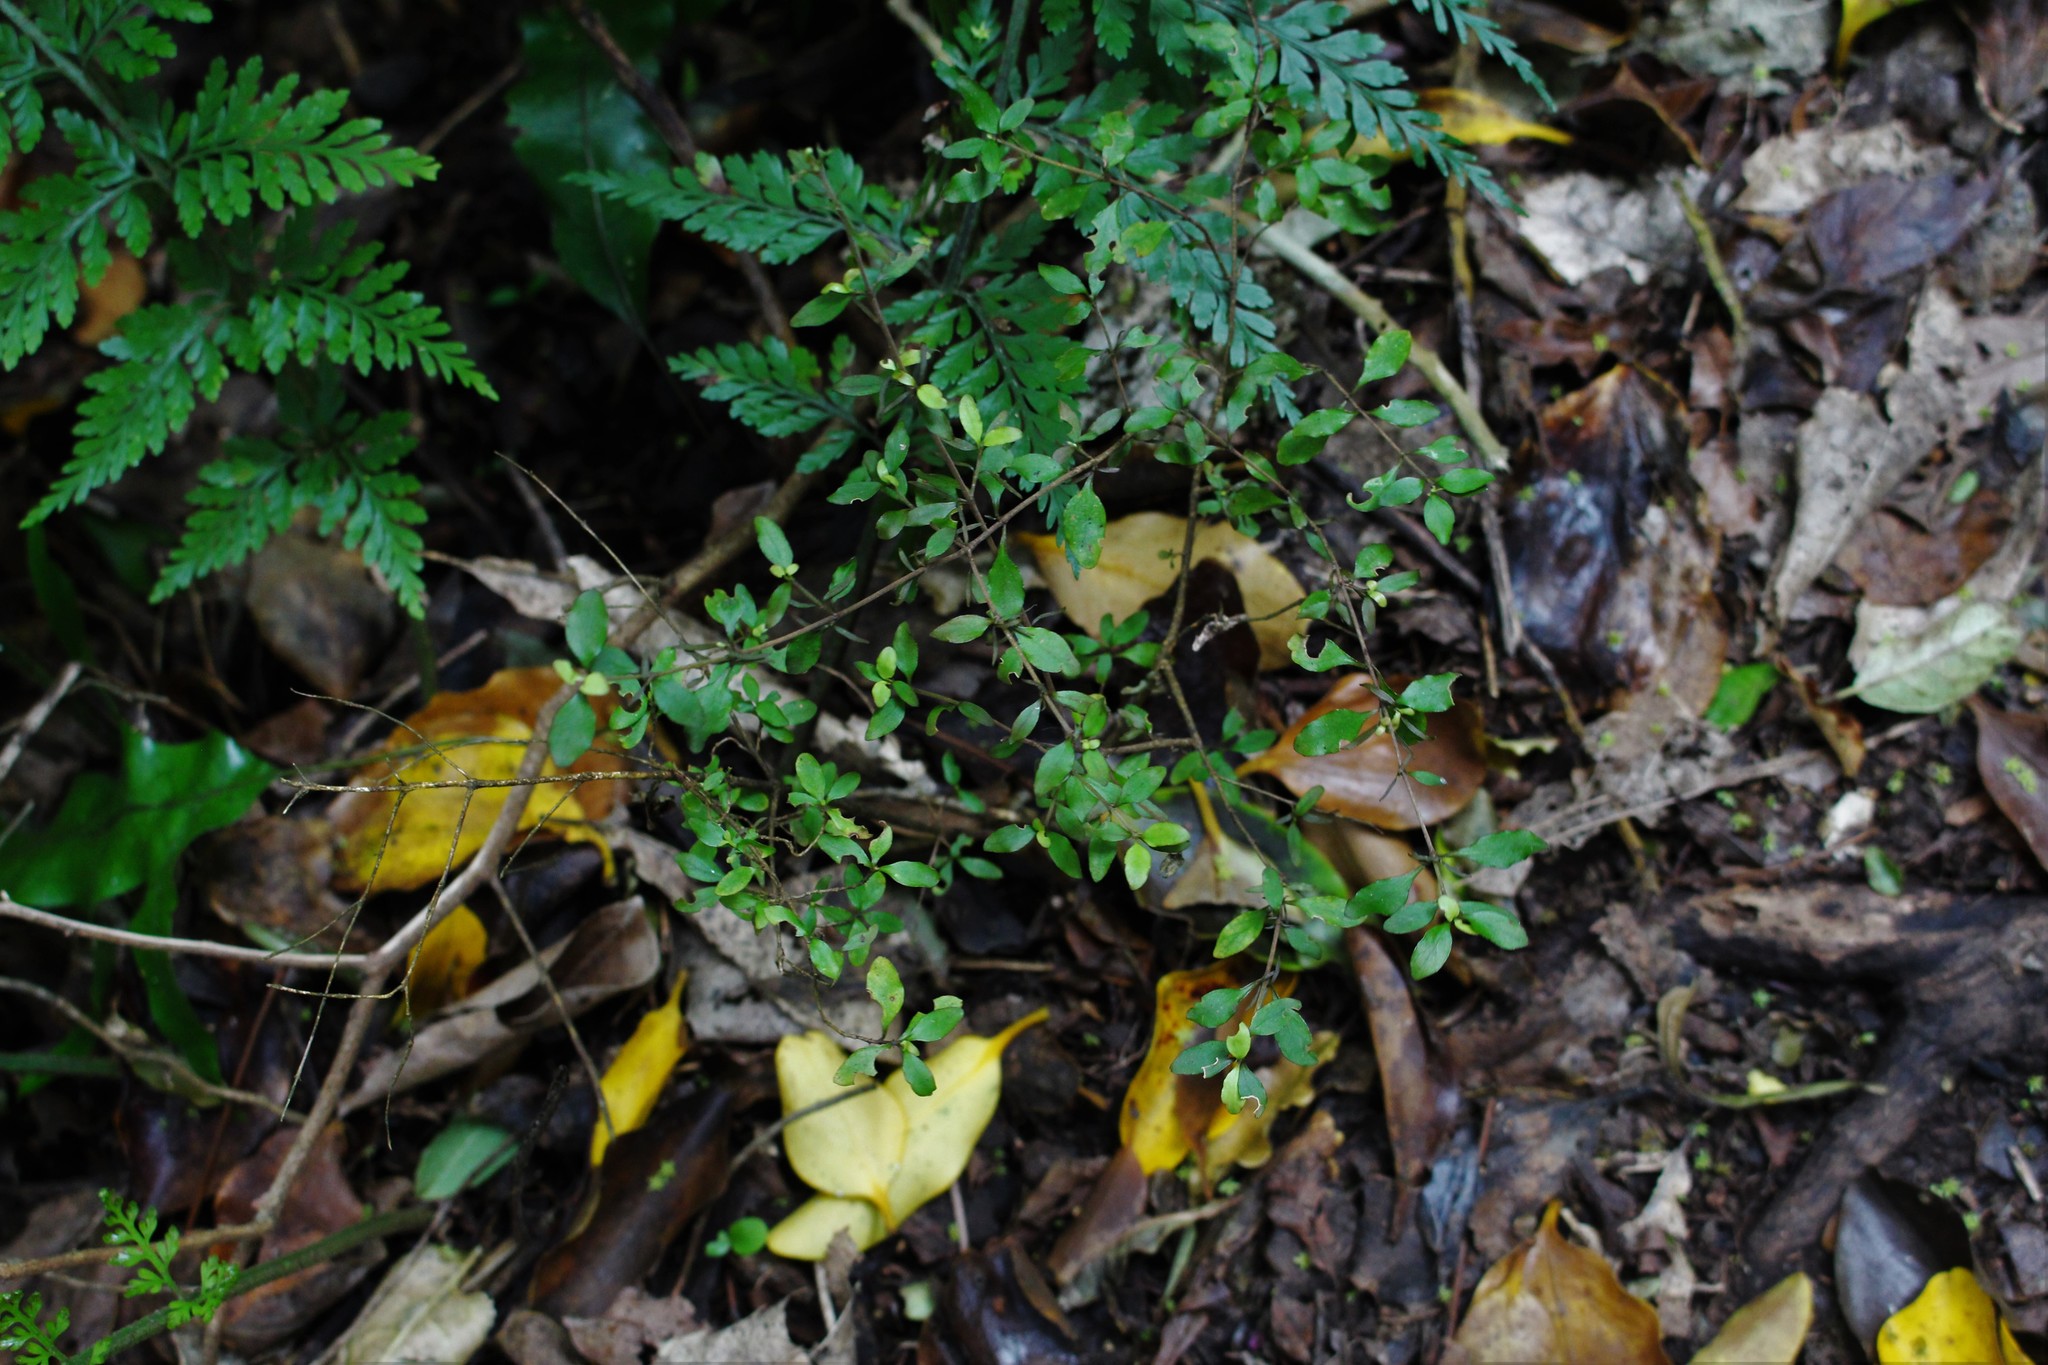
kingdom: Plantae
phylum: Tracheophyta
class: Magnoliopsida
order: Gentianales
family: Rubiaceae
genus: Coprosma
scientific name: Coprosma rhamnoides
